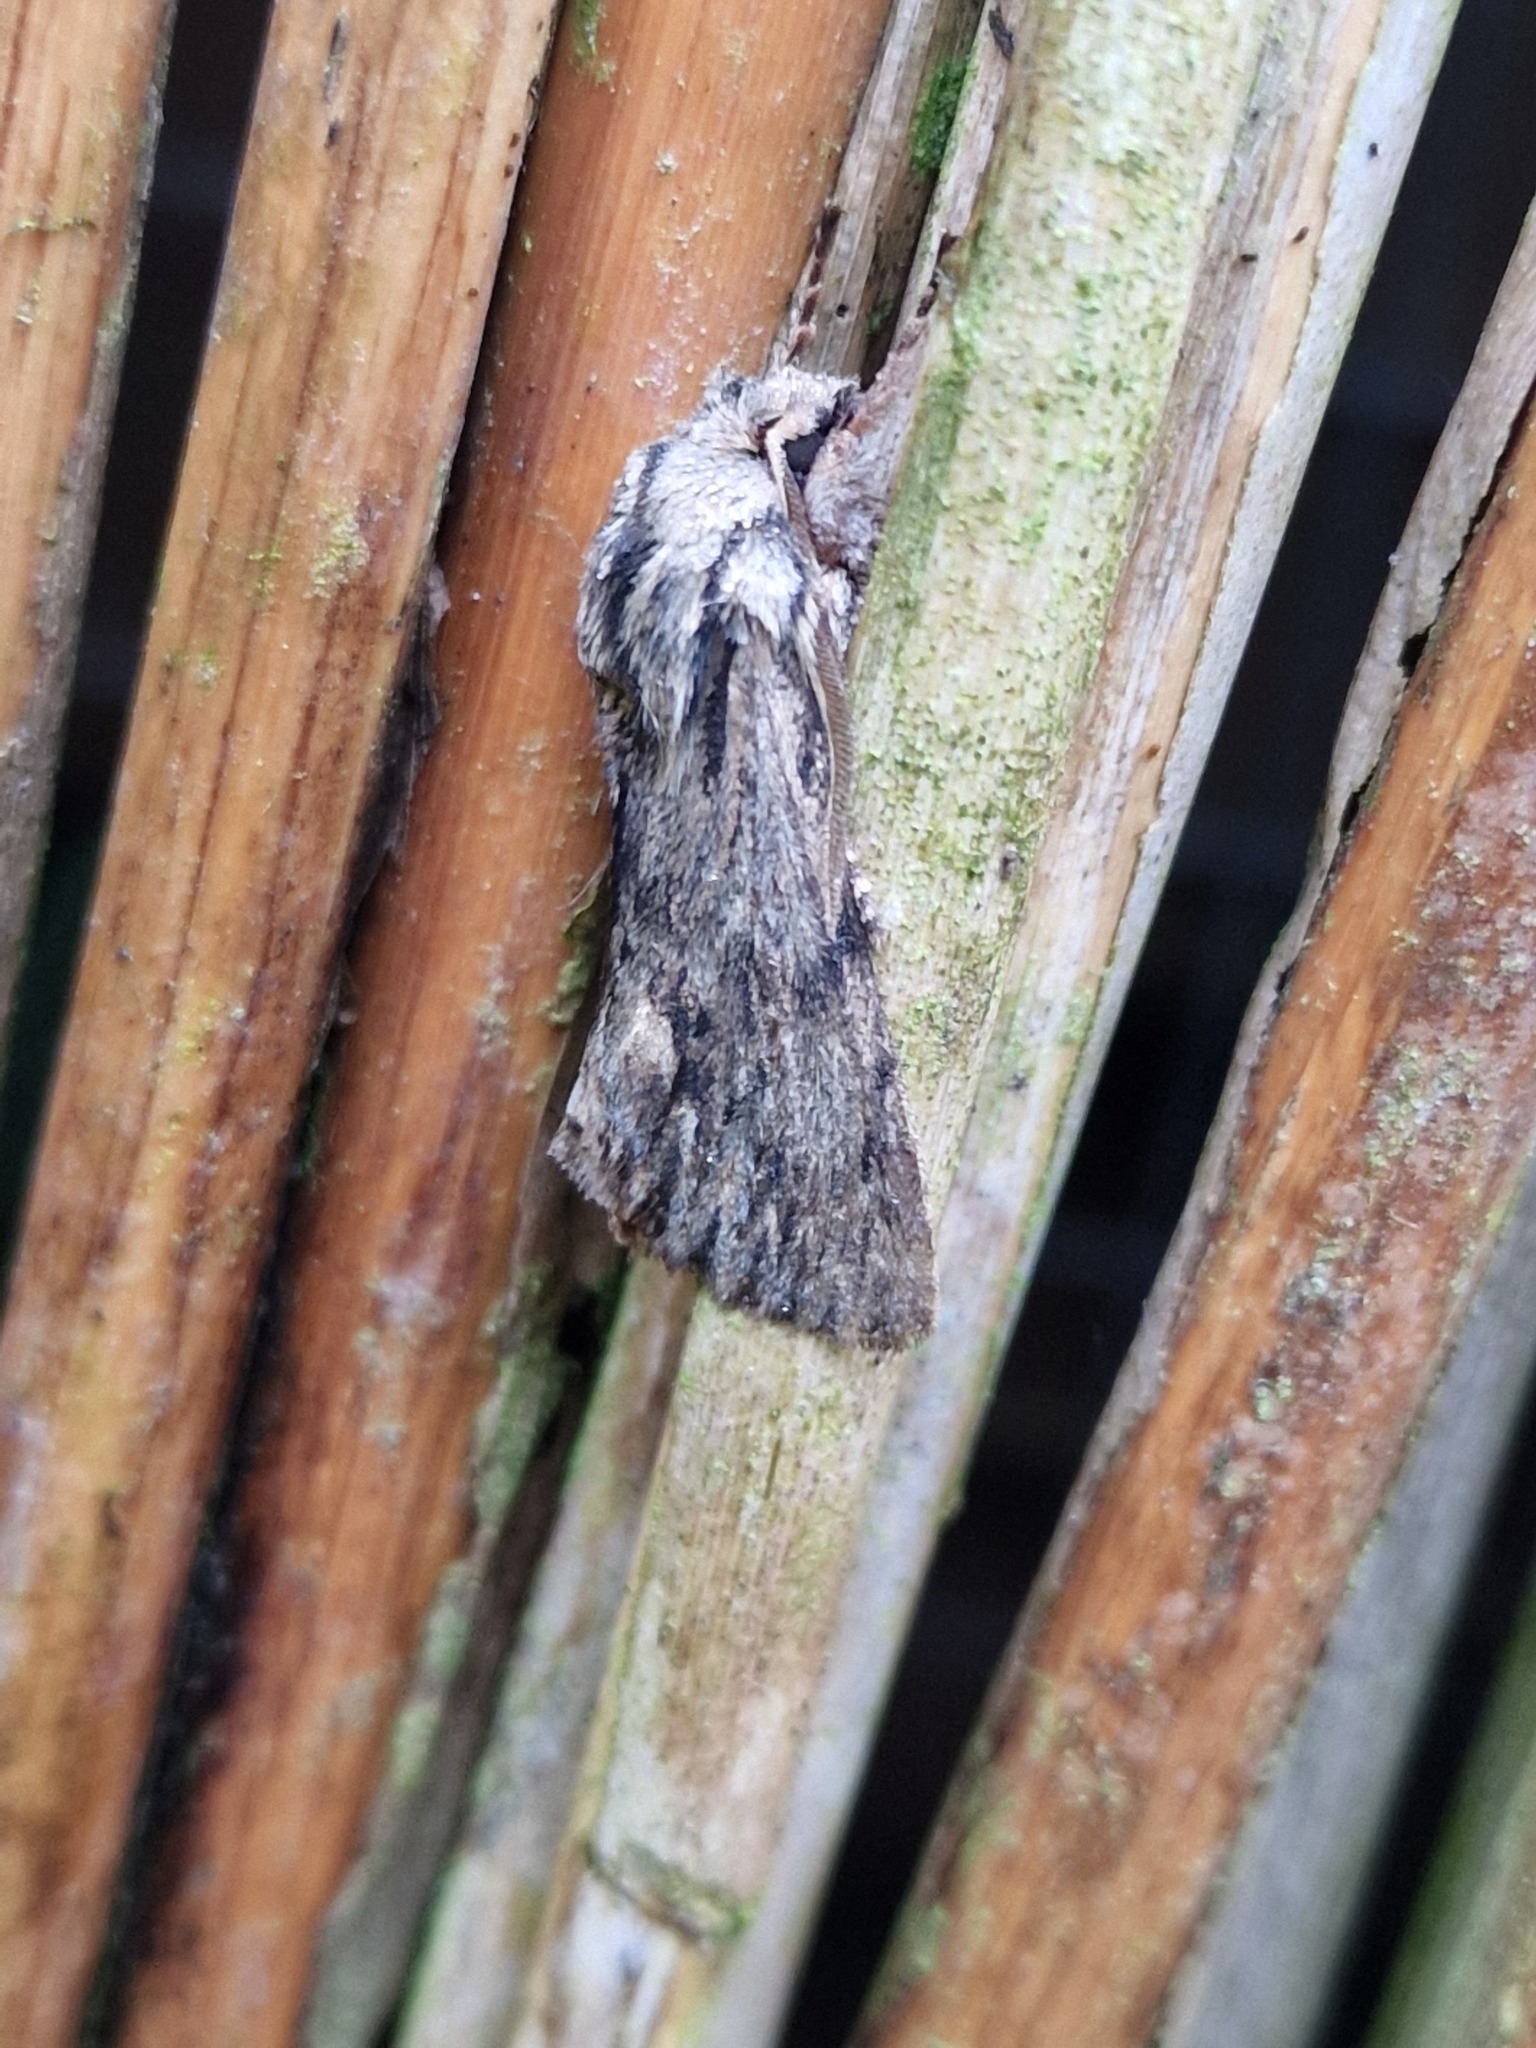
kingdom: Animalia
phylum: Arthropoda
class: Insecta
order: Lepidoptera
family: Noctuidae
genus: Asteroscopus
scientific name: Asteroscopus sphinx
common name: The sprawler
